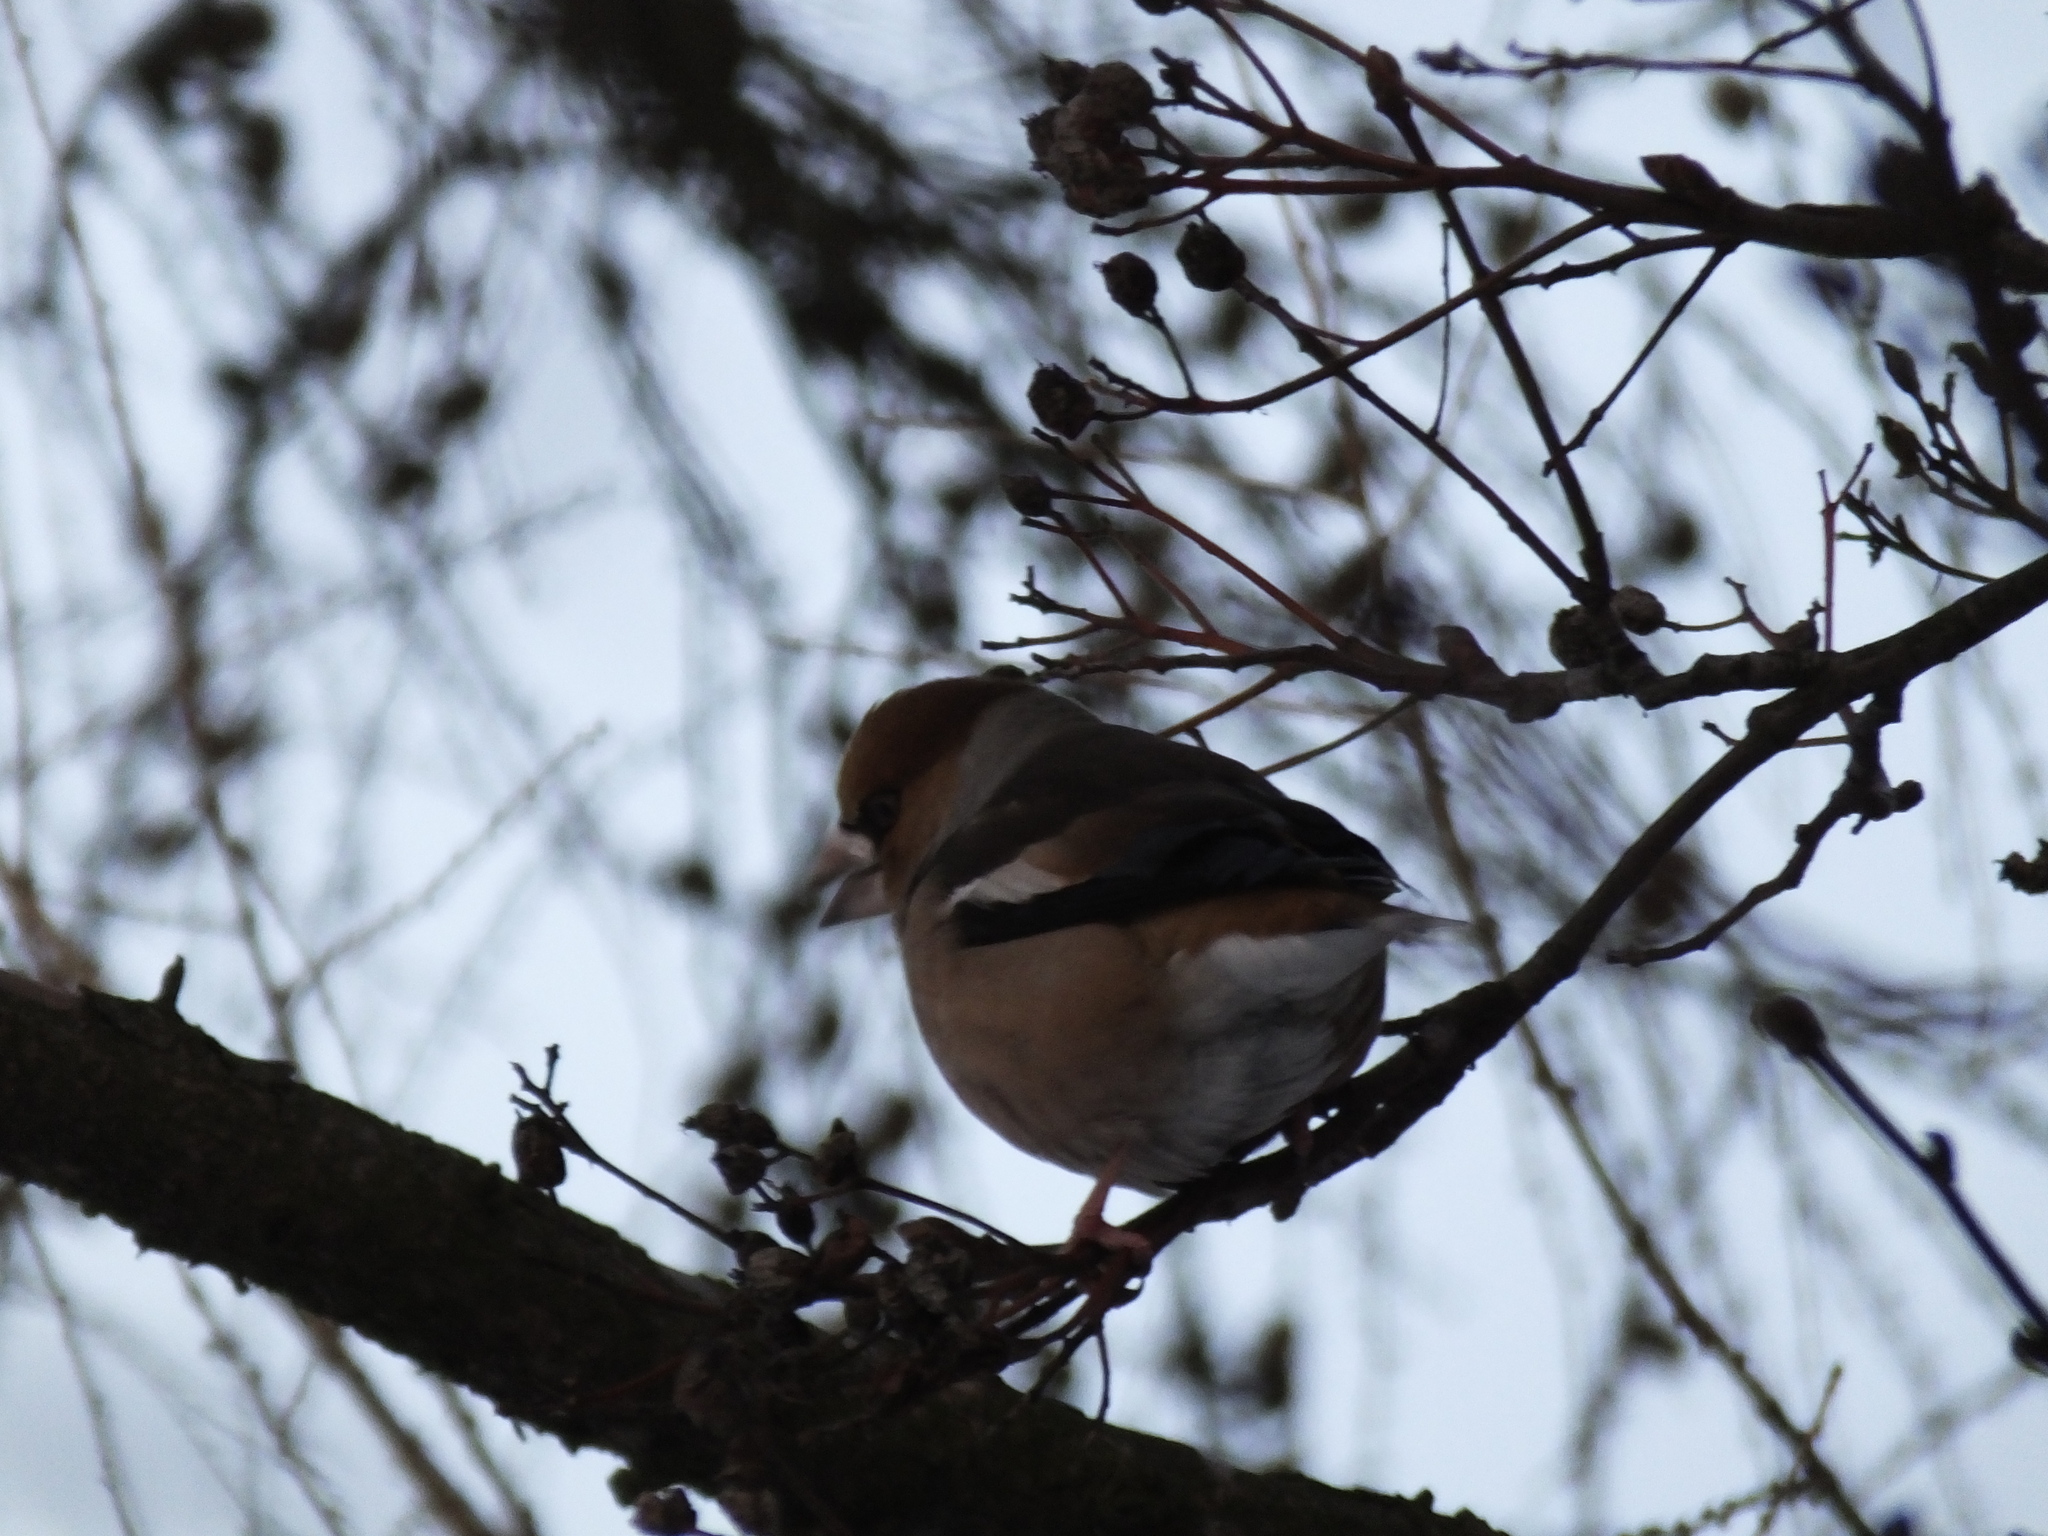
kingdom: Animalia
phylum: Chordata
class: Aves
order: Passeriformes
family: Fringillidae
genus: Coccothraustes
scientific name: Coccothraustes coccothraustes
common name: Hawfinch
